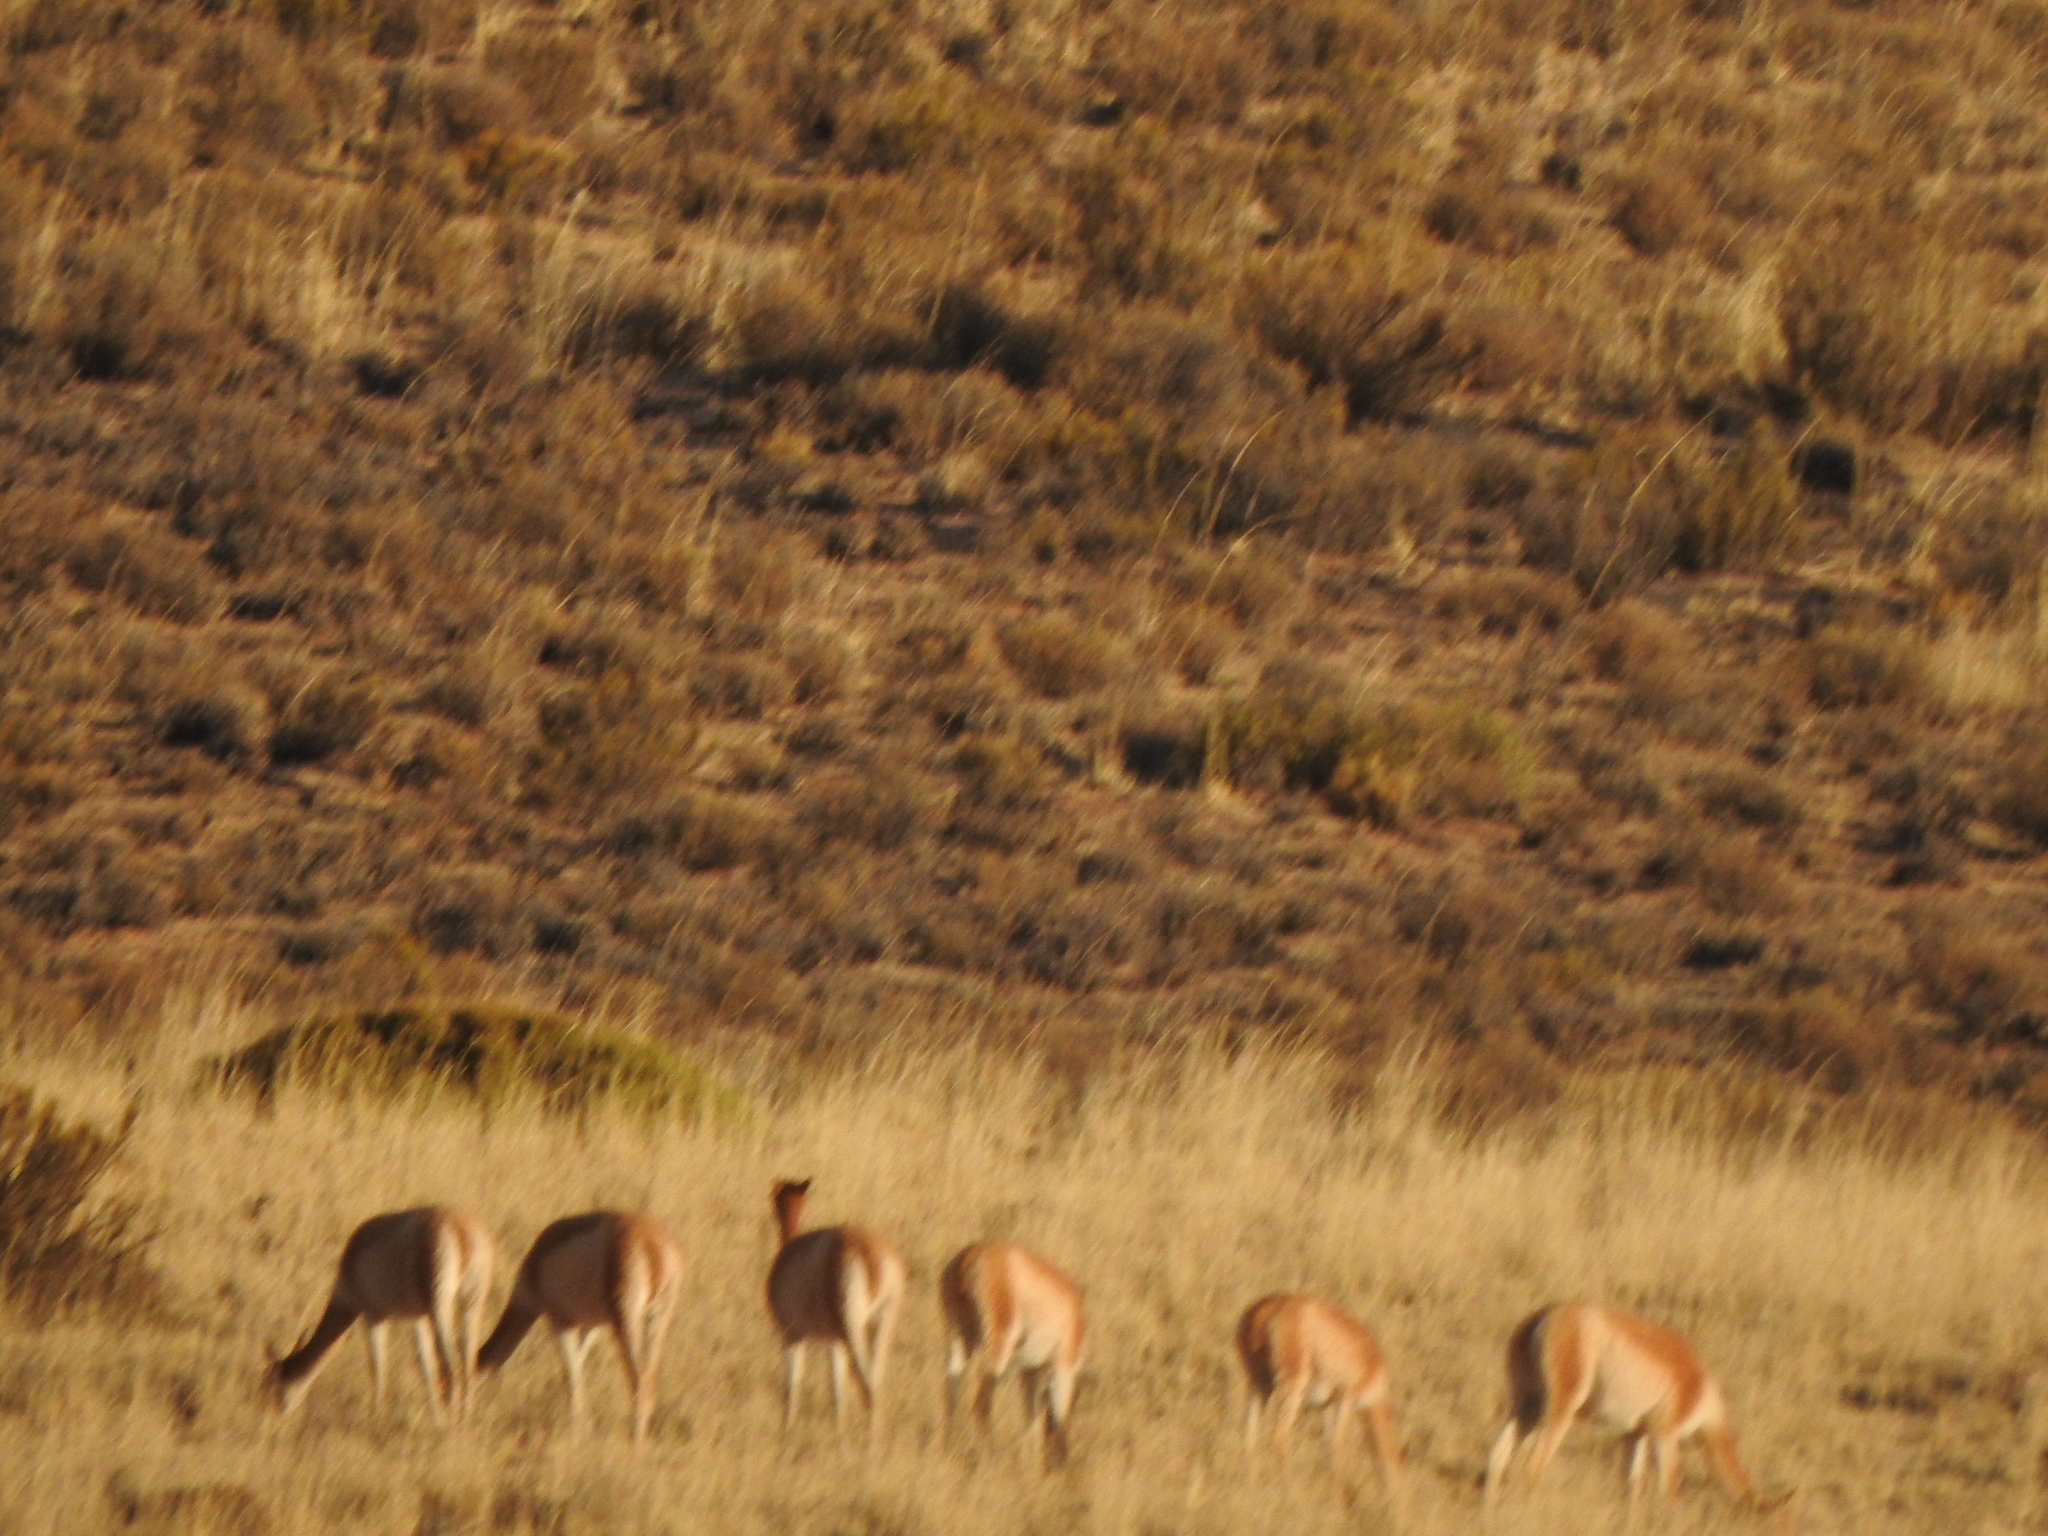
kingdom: Animalia
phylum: Chordata
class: Mammalia
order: Artiodactyla
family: Camelidae
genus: Vicugna
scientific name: Vicugna vicugna
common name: Vicugna
